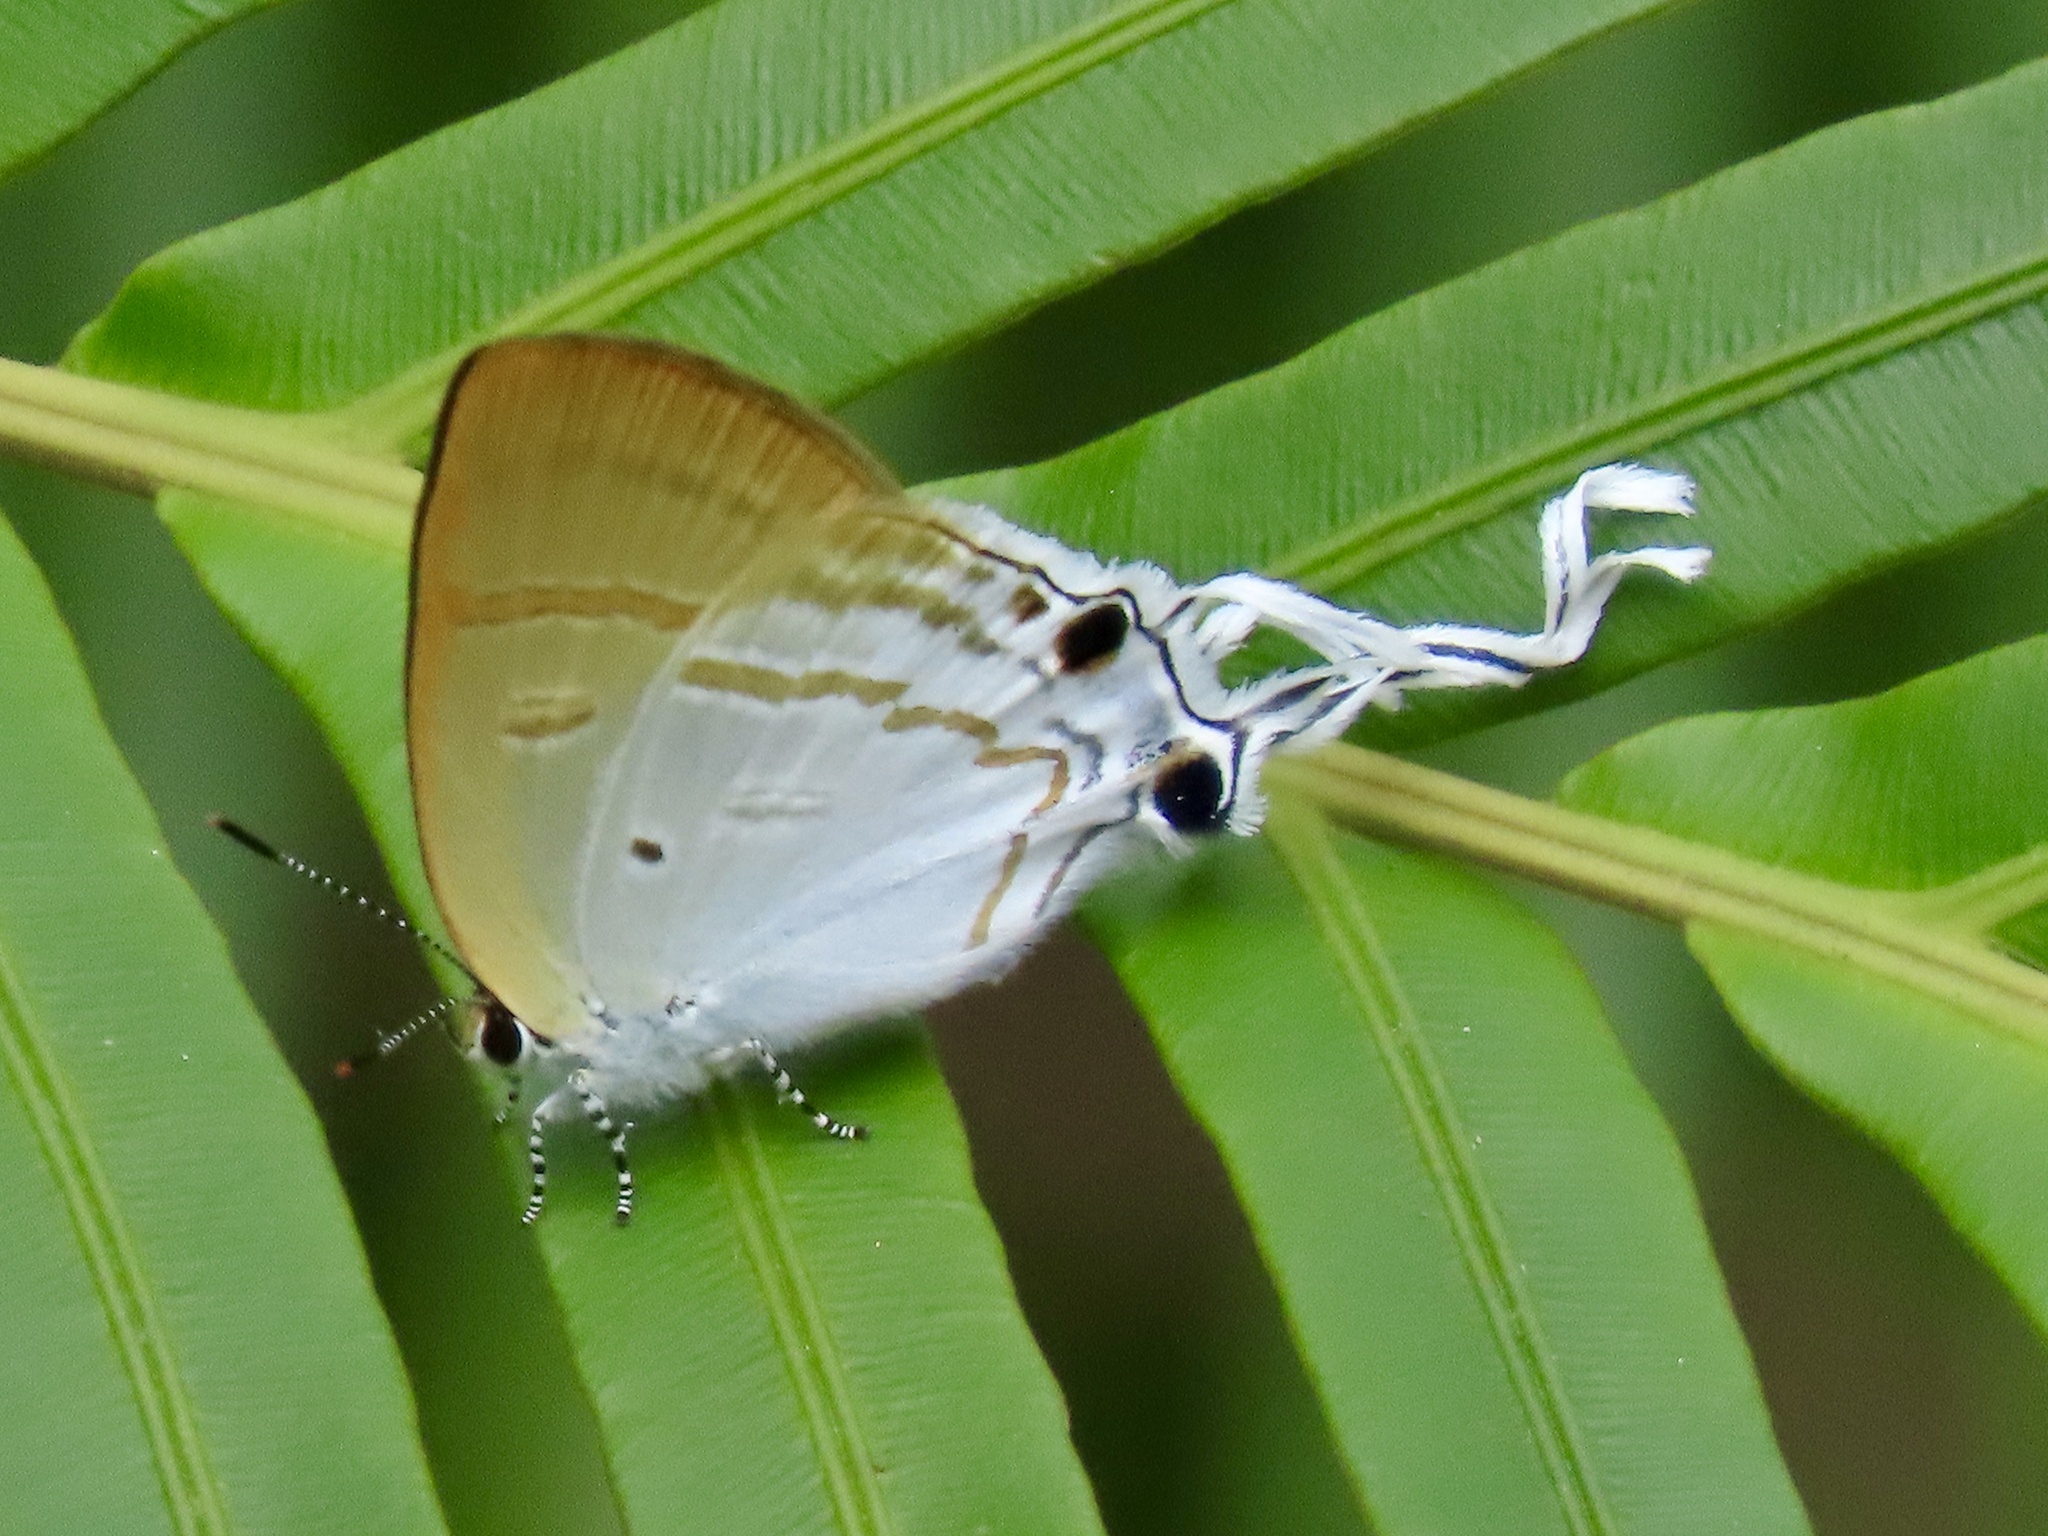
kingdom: Animalia
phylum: Arthropoda
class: Insecta
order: Lepidoptera
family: Lycaenidae
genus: Zeltus
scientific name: Zeltus amasa
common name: Fluffy tit
